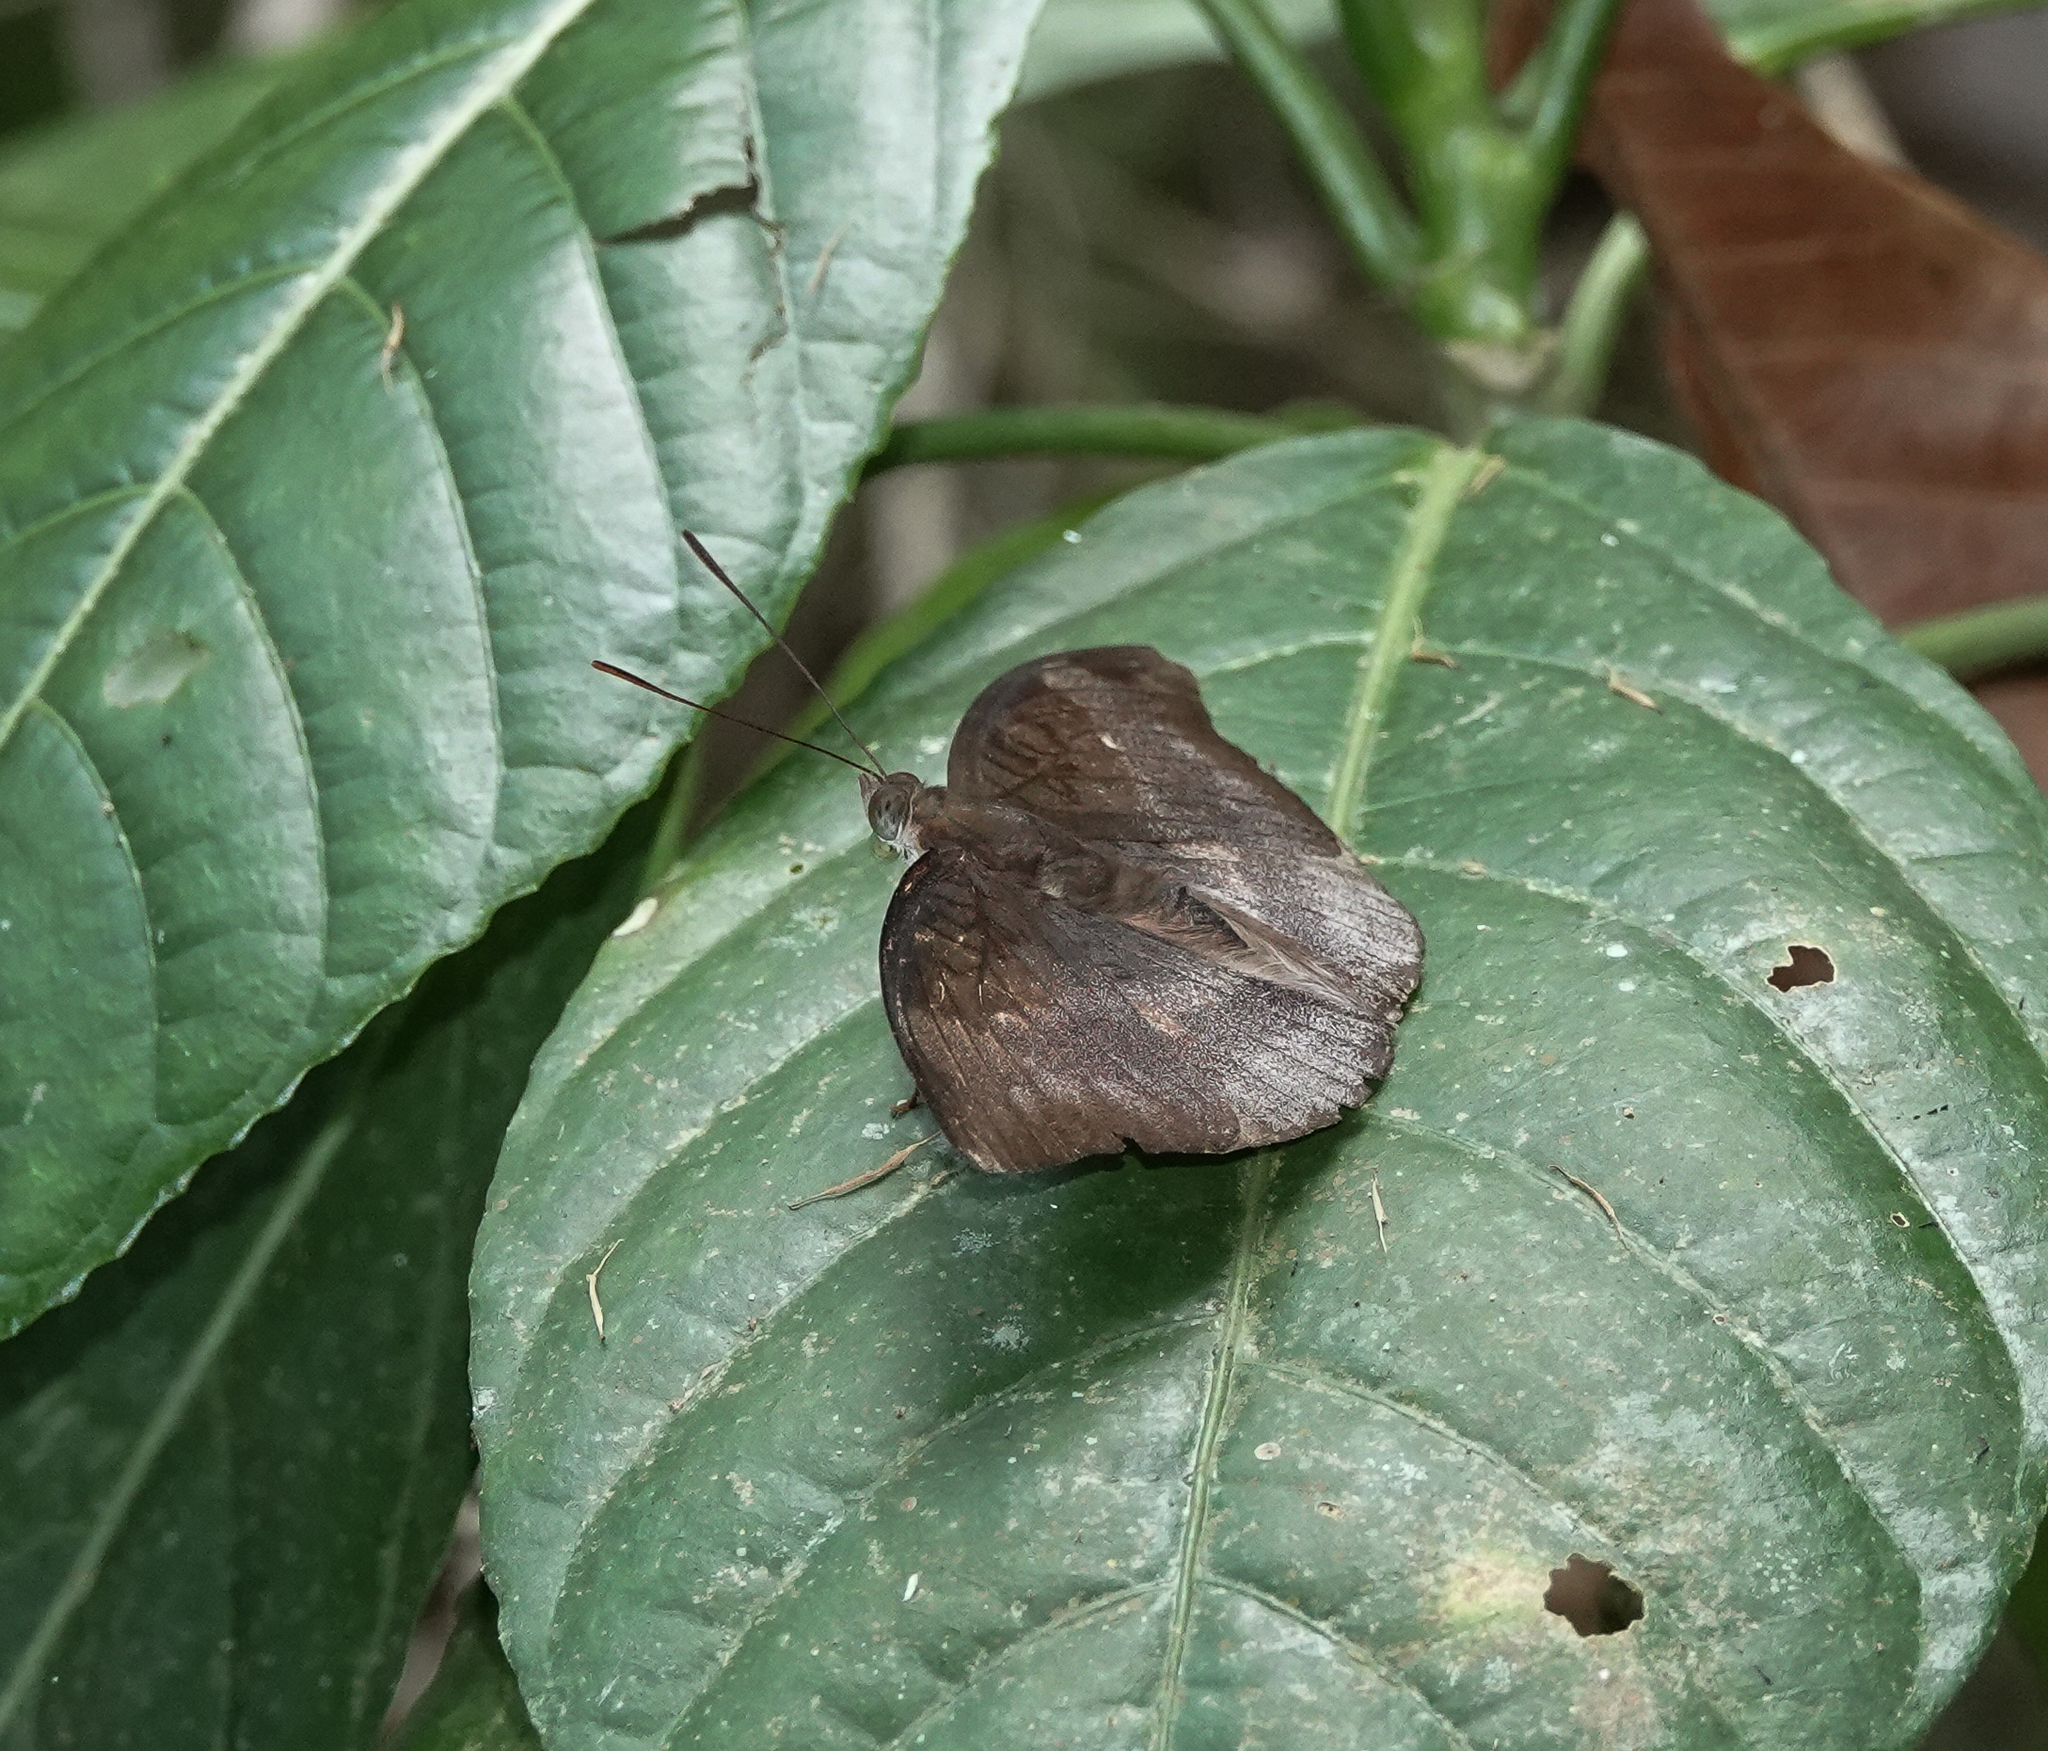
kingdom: Animalia
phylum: Arthropoda
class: Insecta
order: Lepidoptera
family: Nymphalidae
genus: Euthalia
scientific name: Euthalia monina
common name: Powdered baron
